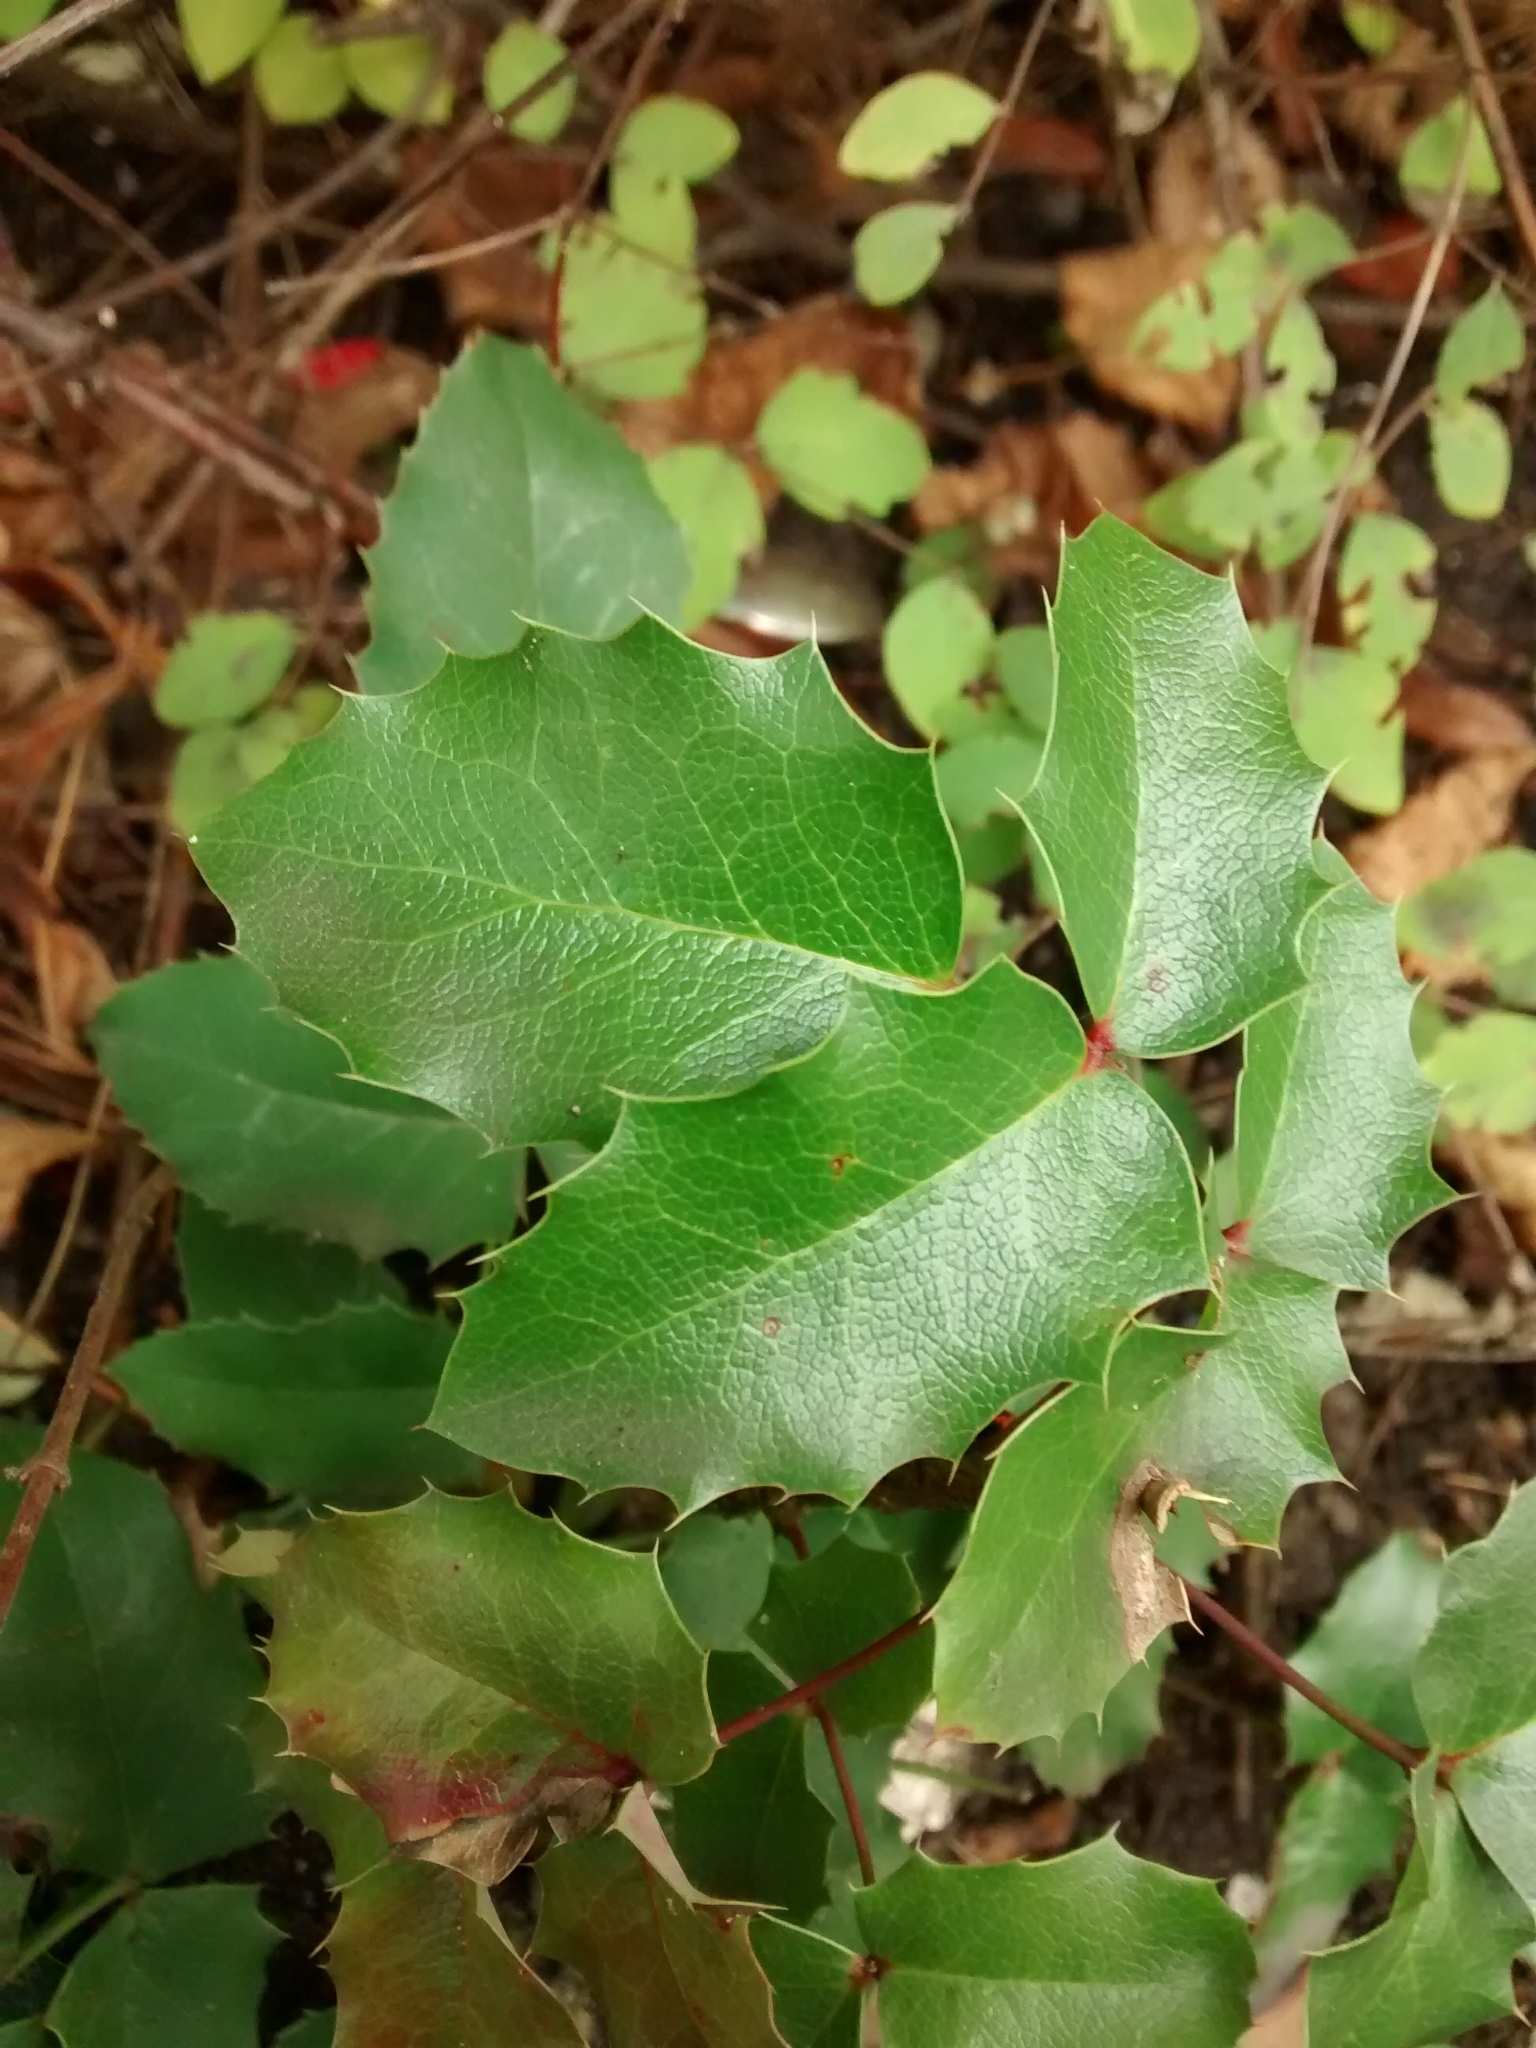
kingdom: Plantae
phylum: Tracheophyta
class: Magnoliopsida
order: Ranunculales
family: Berberidaceae
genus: Mahonia
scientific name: Mahonia aquifolium
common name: Oregon-grape
